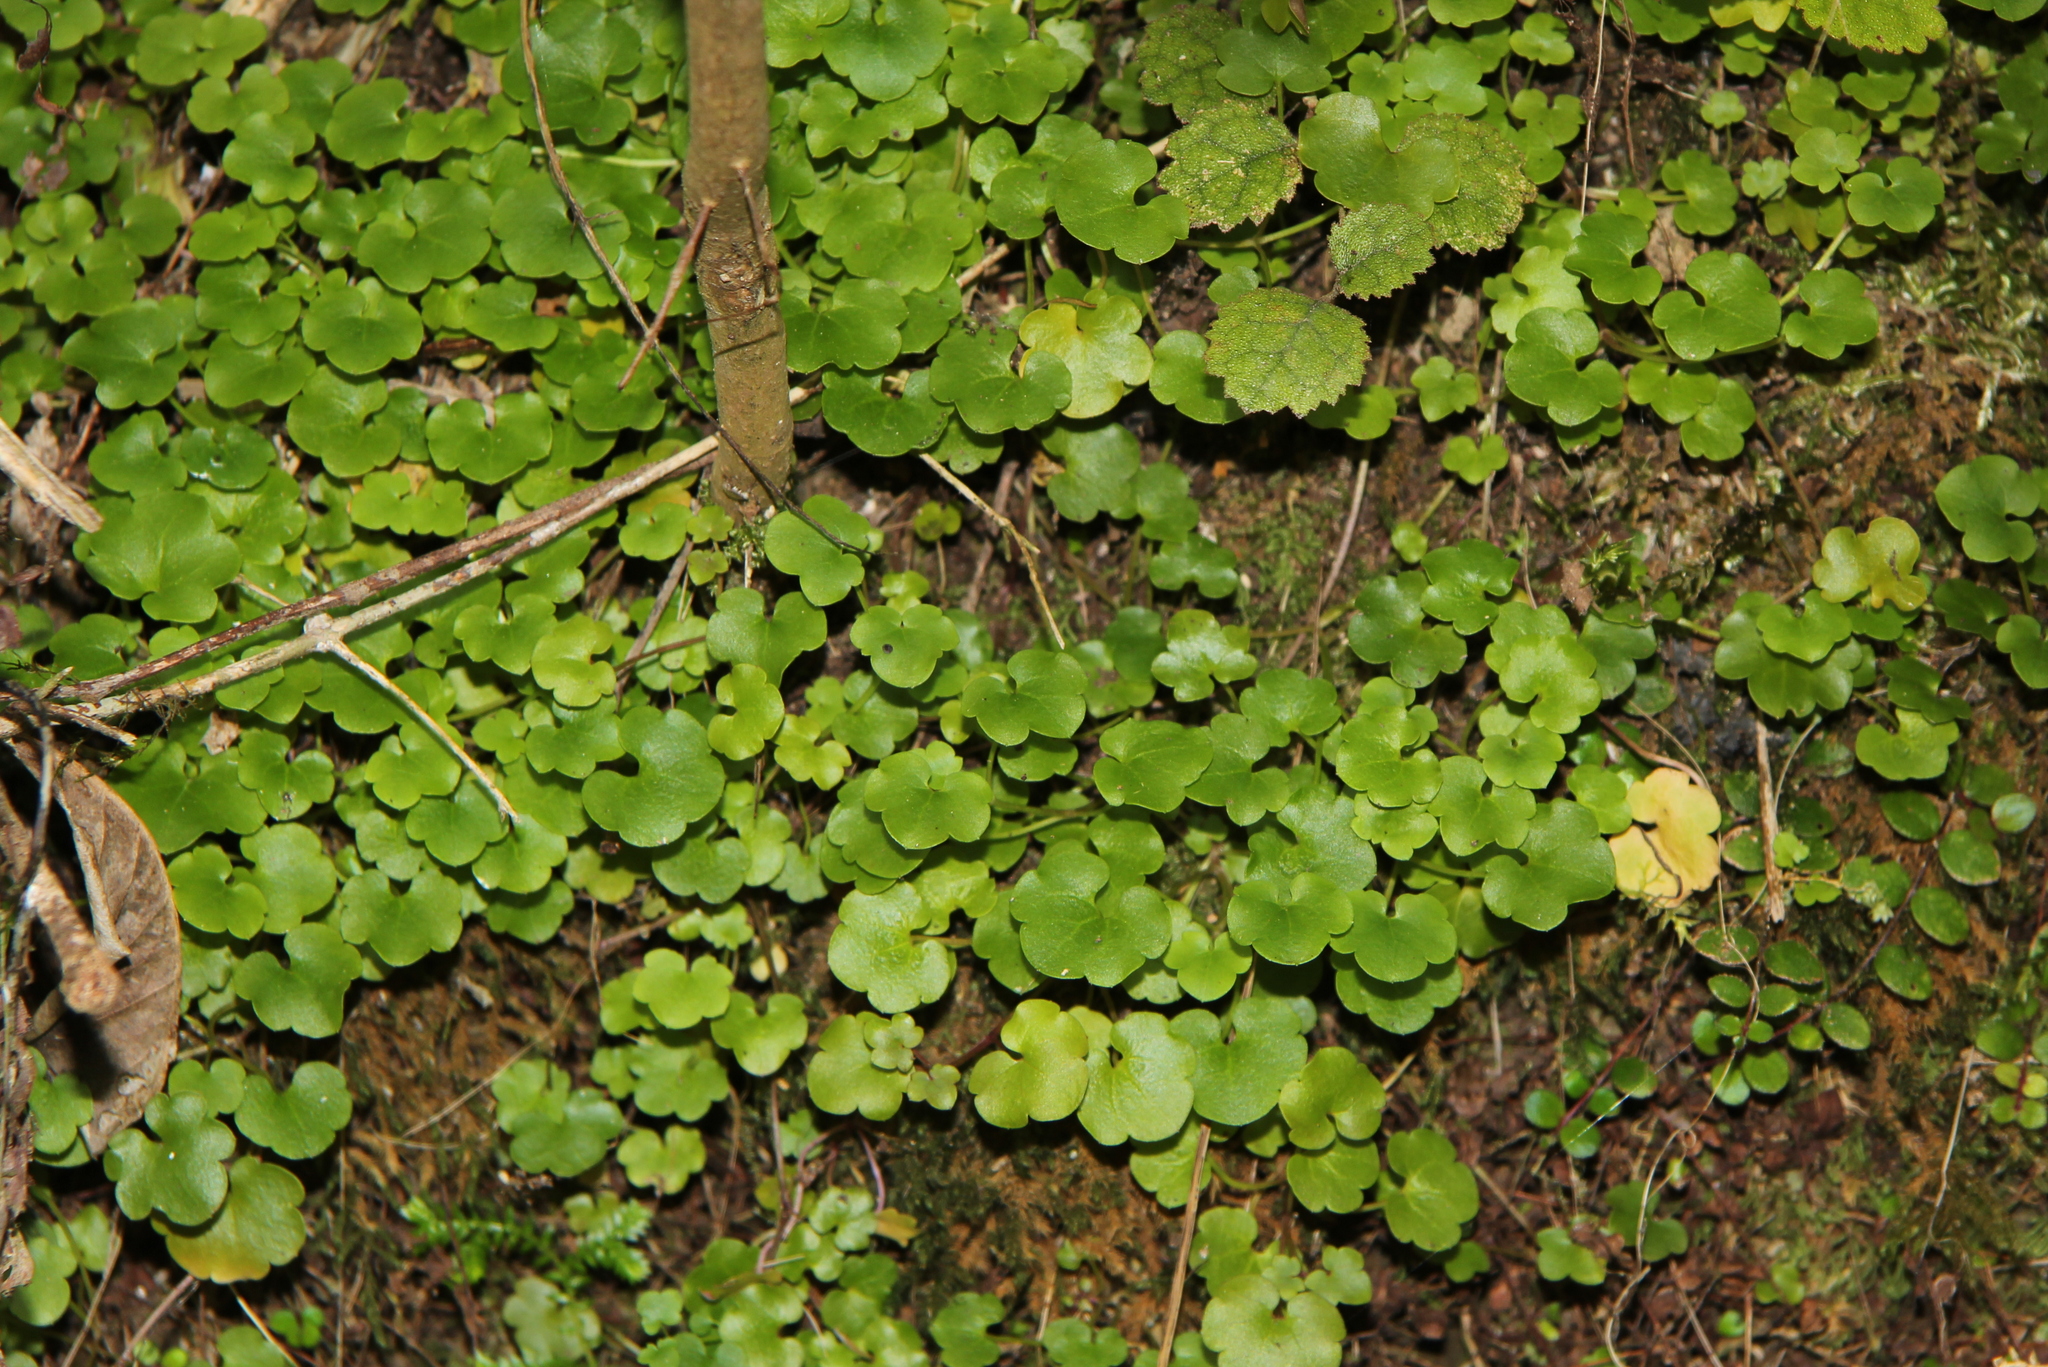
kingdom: Plantae
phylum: Tracheophyta
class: Magnoliopsida
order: Lamiales
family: Plantaginaceae
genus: Cymbalaria
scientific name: Cymbalaria muralis
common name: Ivy-leaved toadflax
